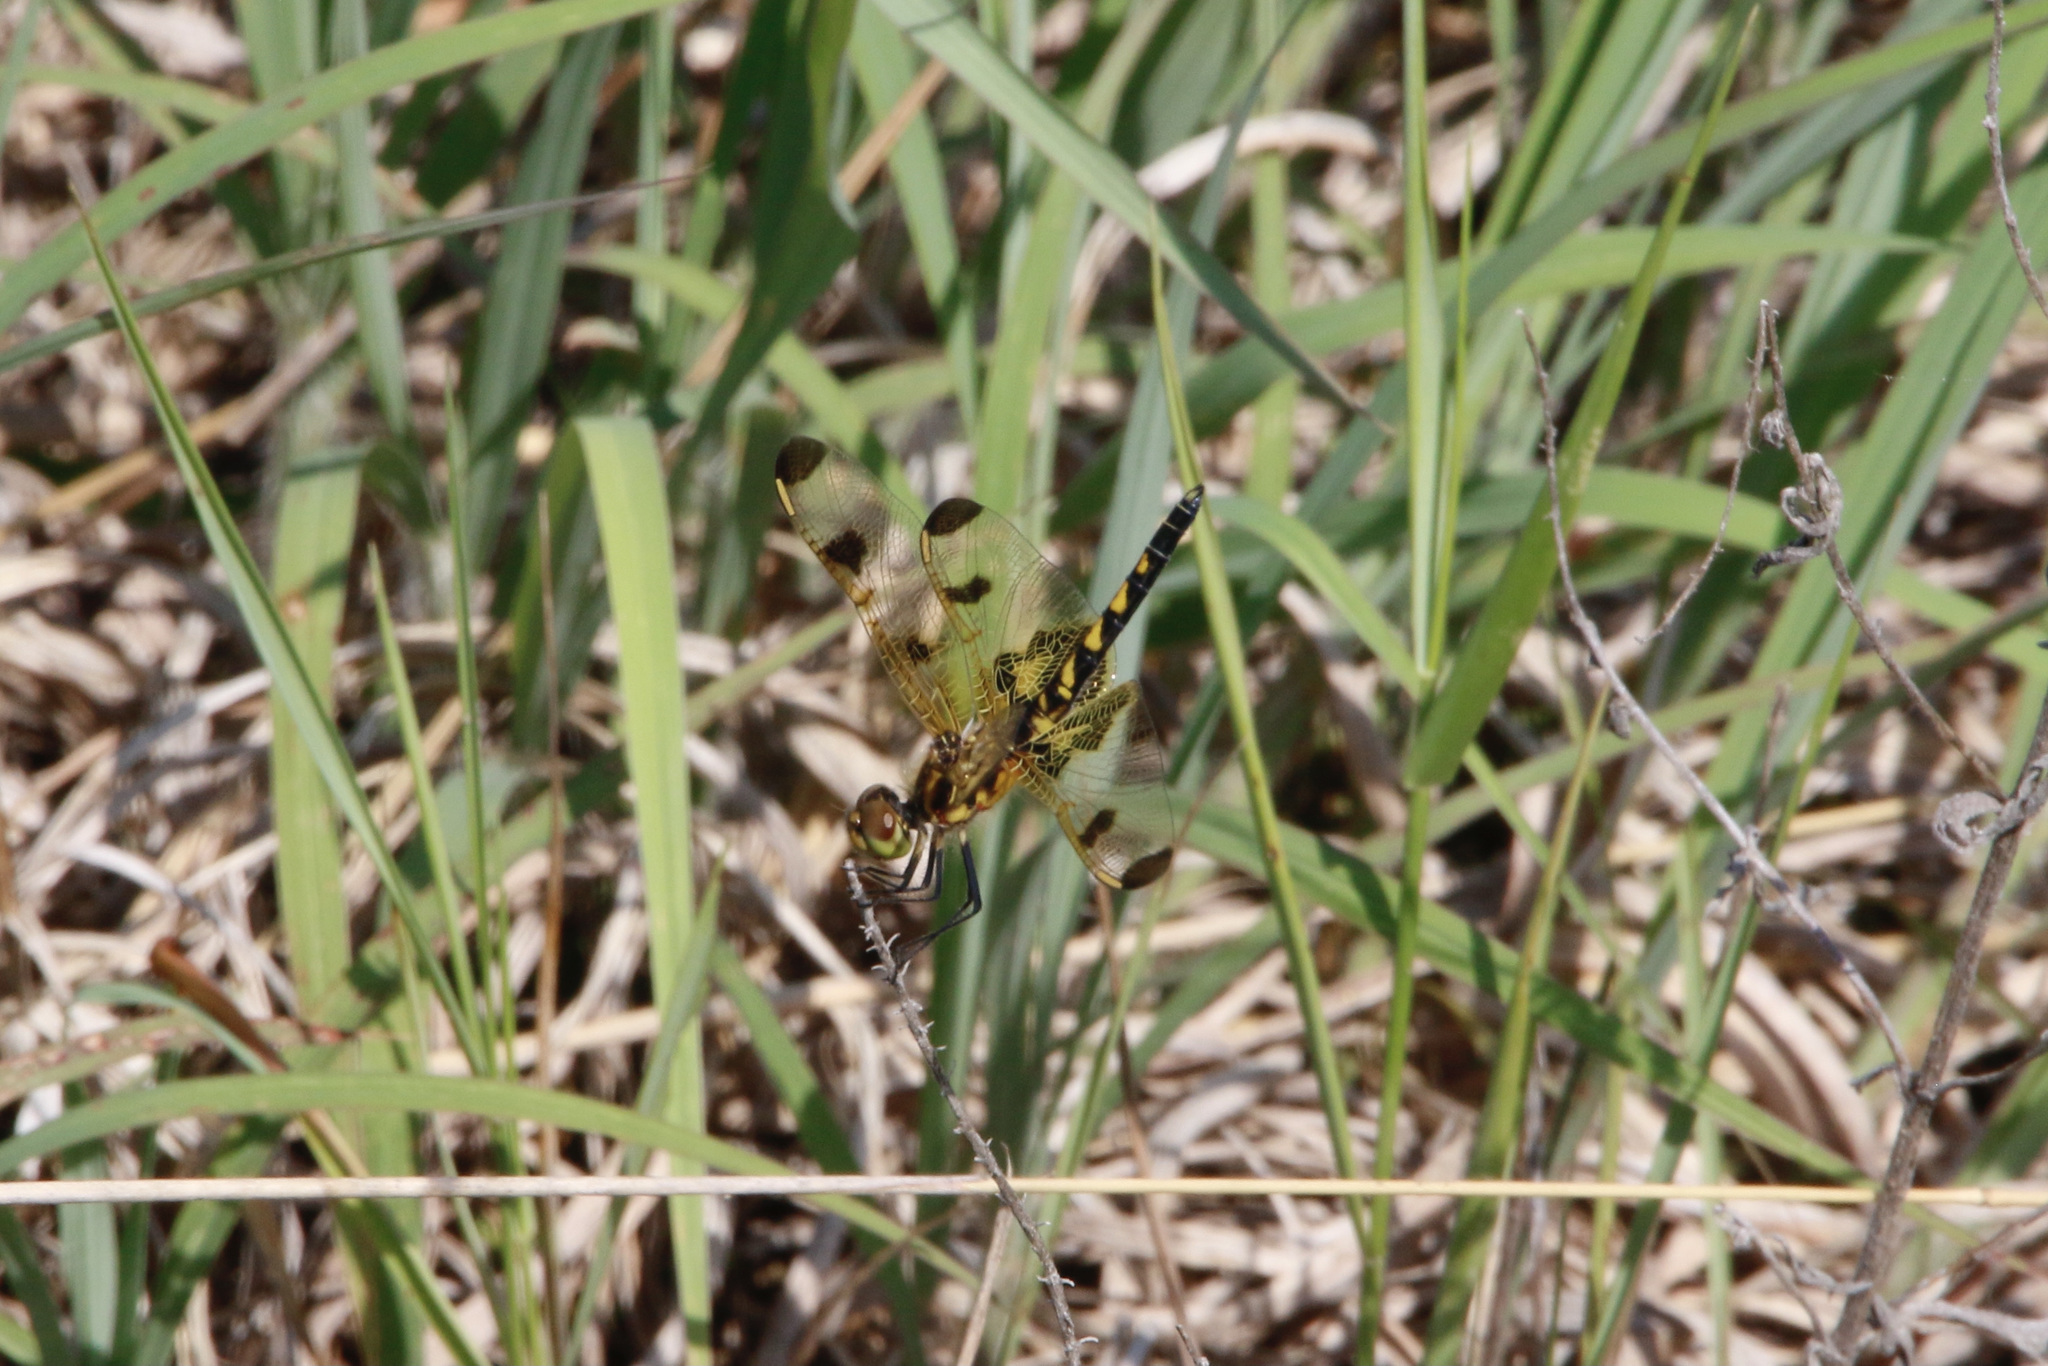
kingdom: Animalia
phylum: Arthropoda
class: Insecta
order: Odonata
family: Libellulidae
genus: Celithemis
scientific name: Celithemis elisa
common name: Calico pennant
